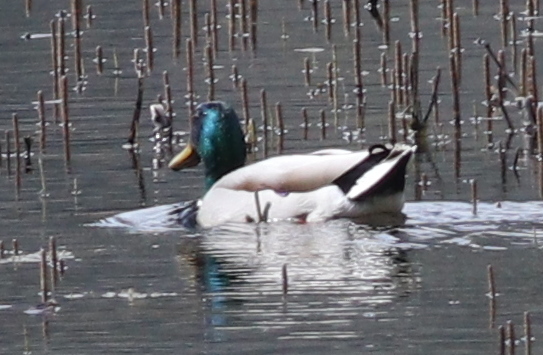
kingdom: Animalia
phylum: Chordata
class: Aves
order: Anseriformes
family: Anatidae
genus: Anas
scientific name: Anas platyrhynchos
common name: Mallard
